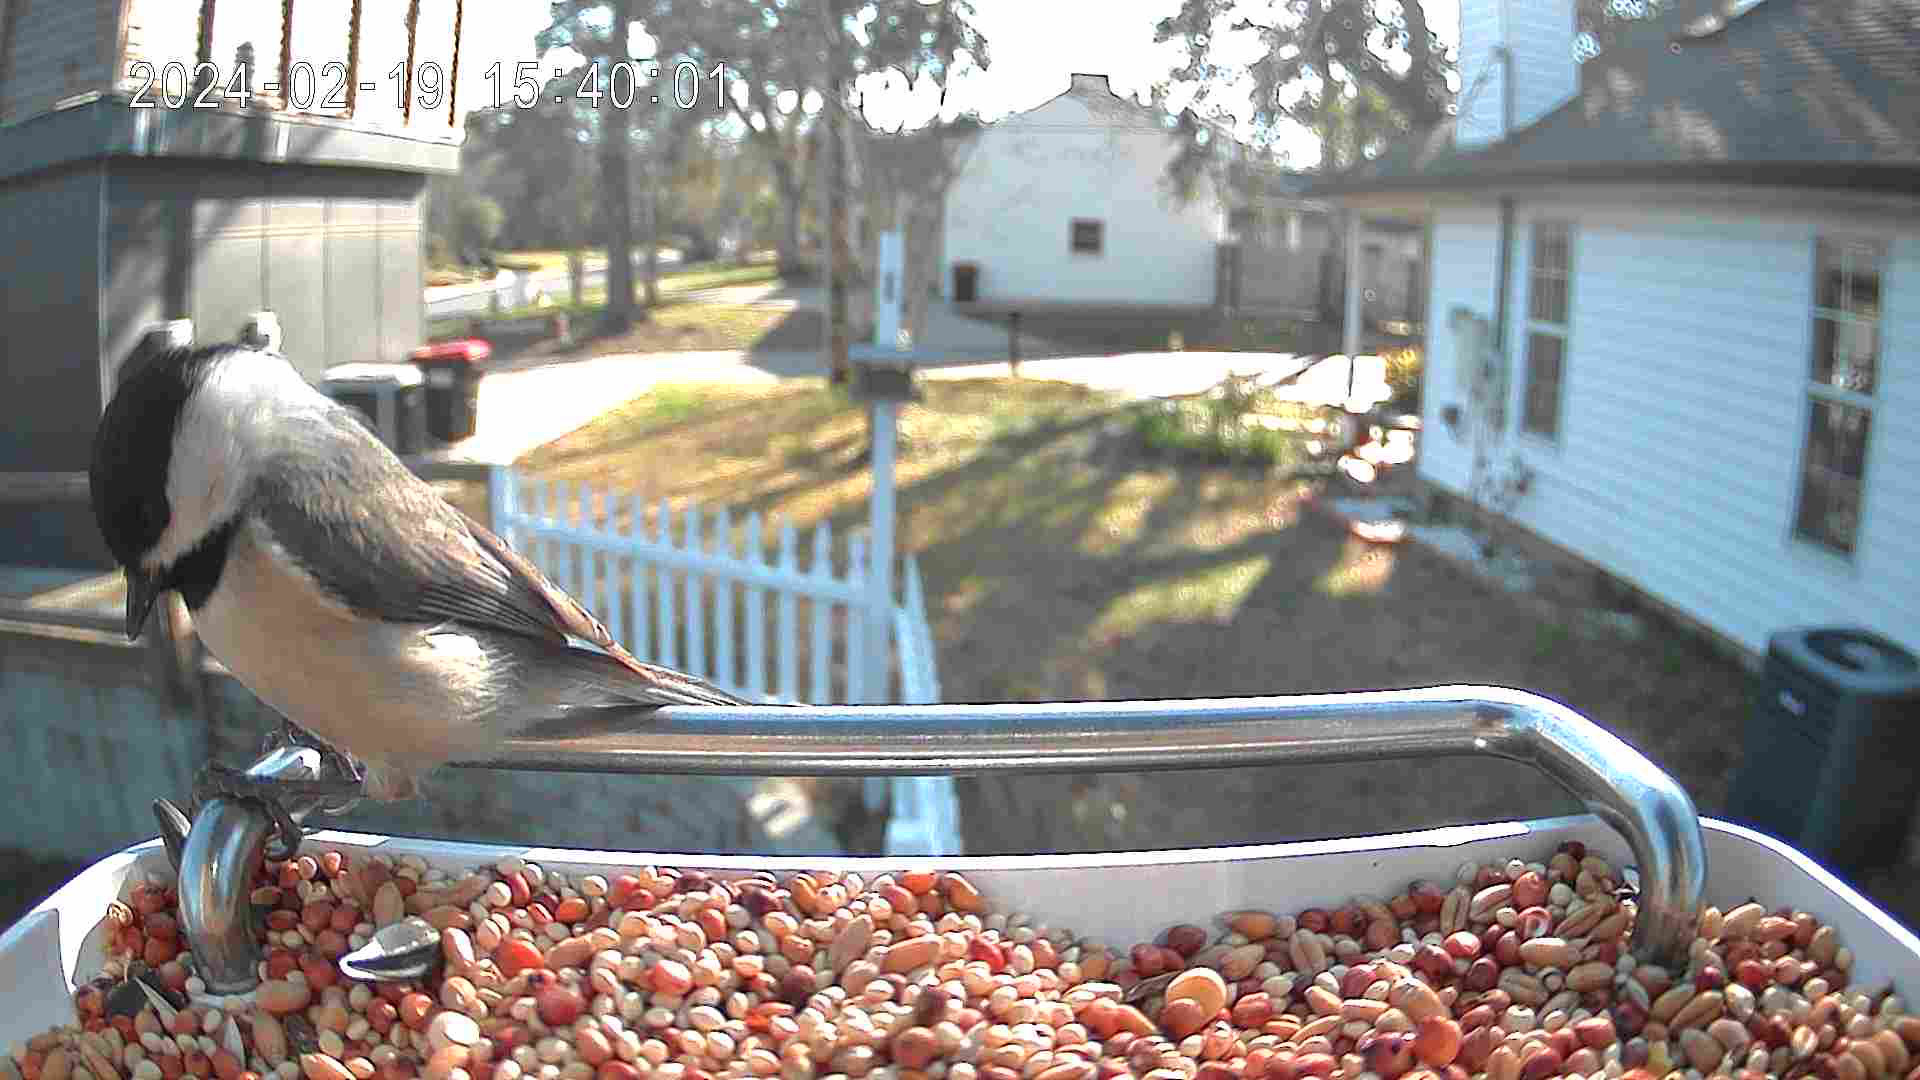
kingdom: Animalia
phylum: Chordata
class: Aves
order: Passeriformes
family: Paridae
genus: Poecile
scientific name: Poecile carolinensis
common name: Carolina chickadee
